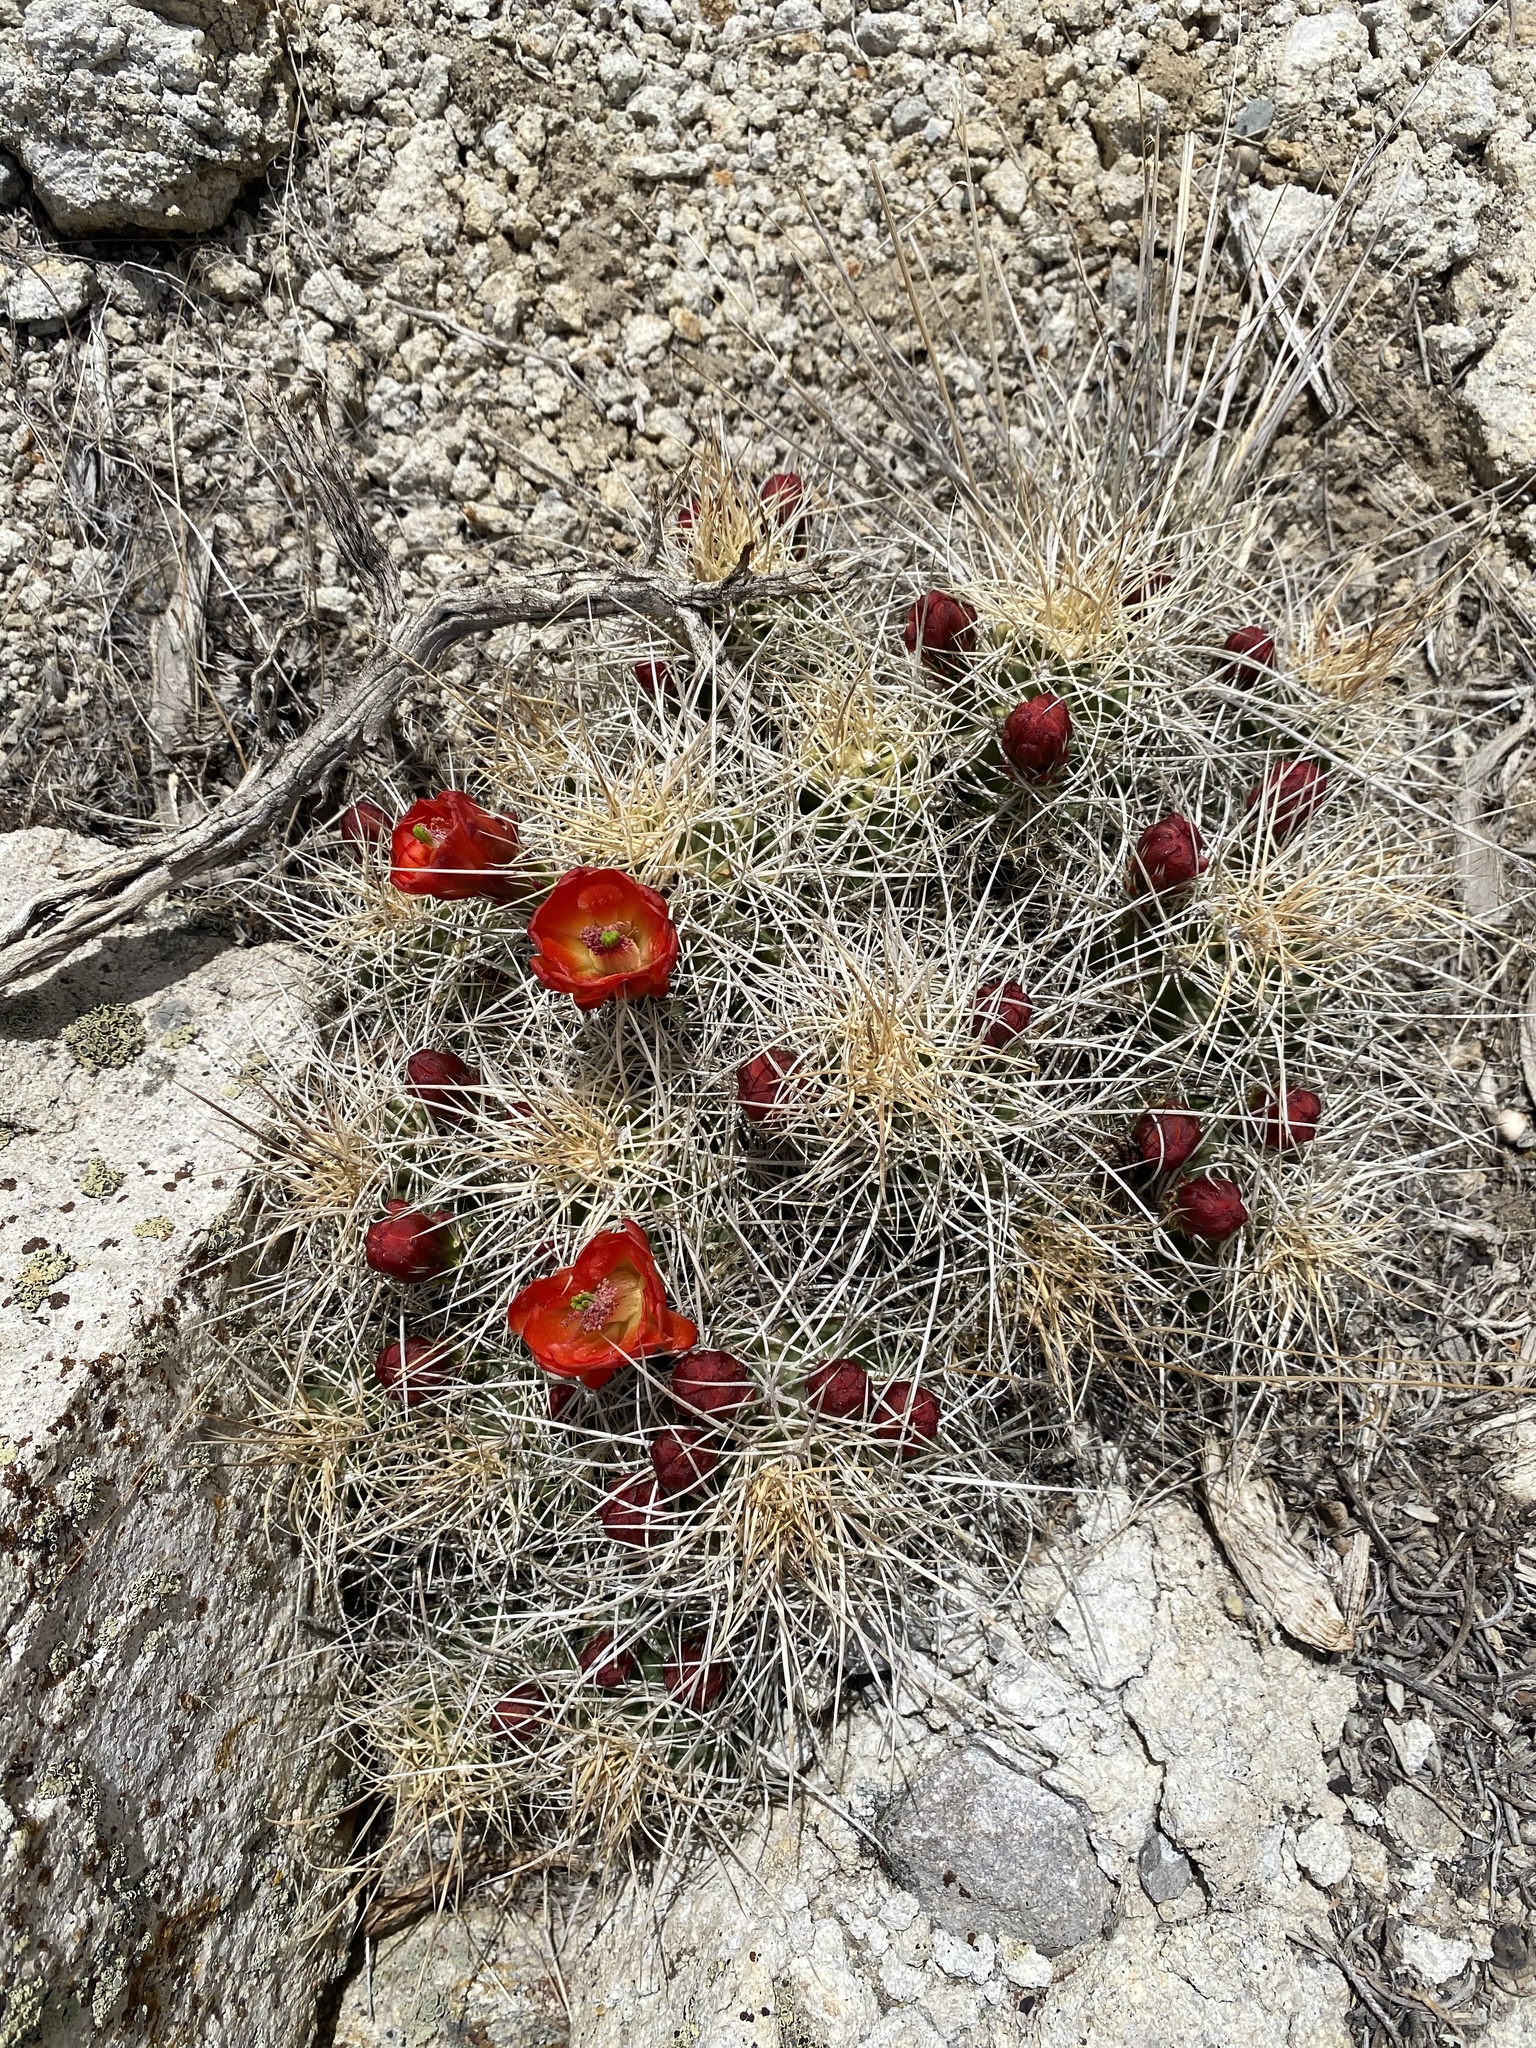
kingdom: Plantae
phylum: Tracheophyta
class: Magnoliopsida
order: Caryophyllales
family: Cactaceae
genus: Echinocereus
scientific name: Echinocereus triglochidiatus
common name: Claretcup hedgehog
